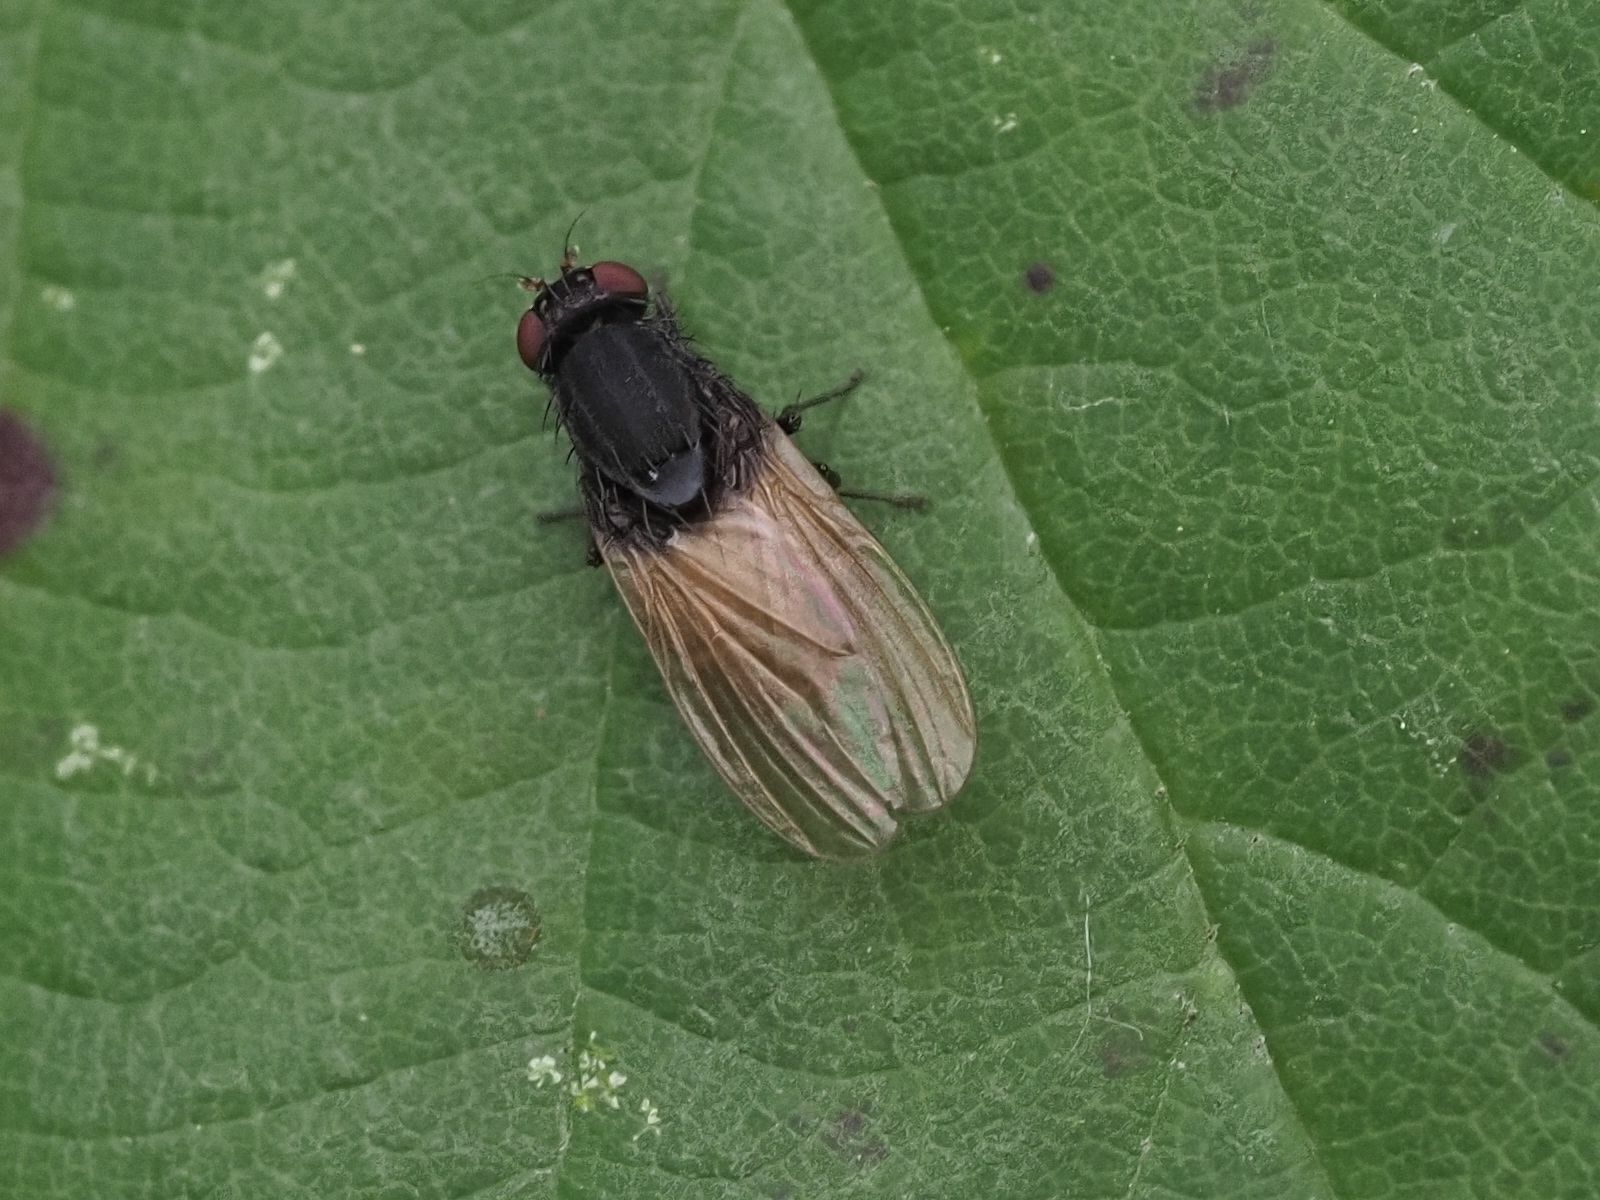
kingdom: Animalia
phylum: Arthropoda
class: Insecta
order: Diptera
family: Lauxaniidae
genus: Minettia
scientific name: Minettia longipennis
